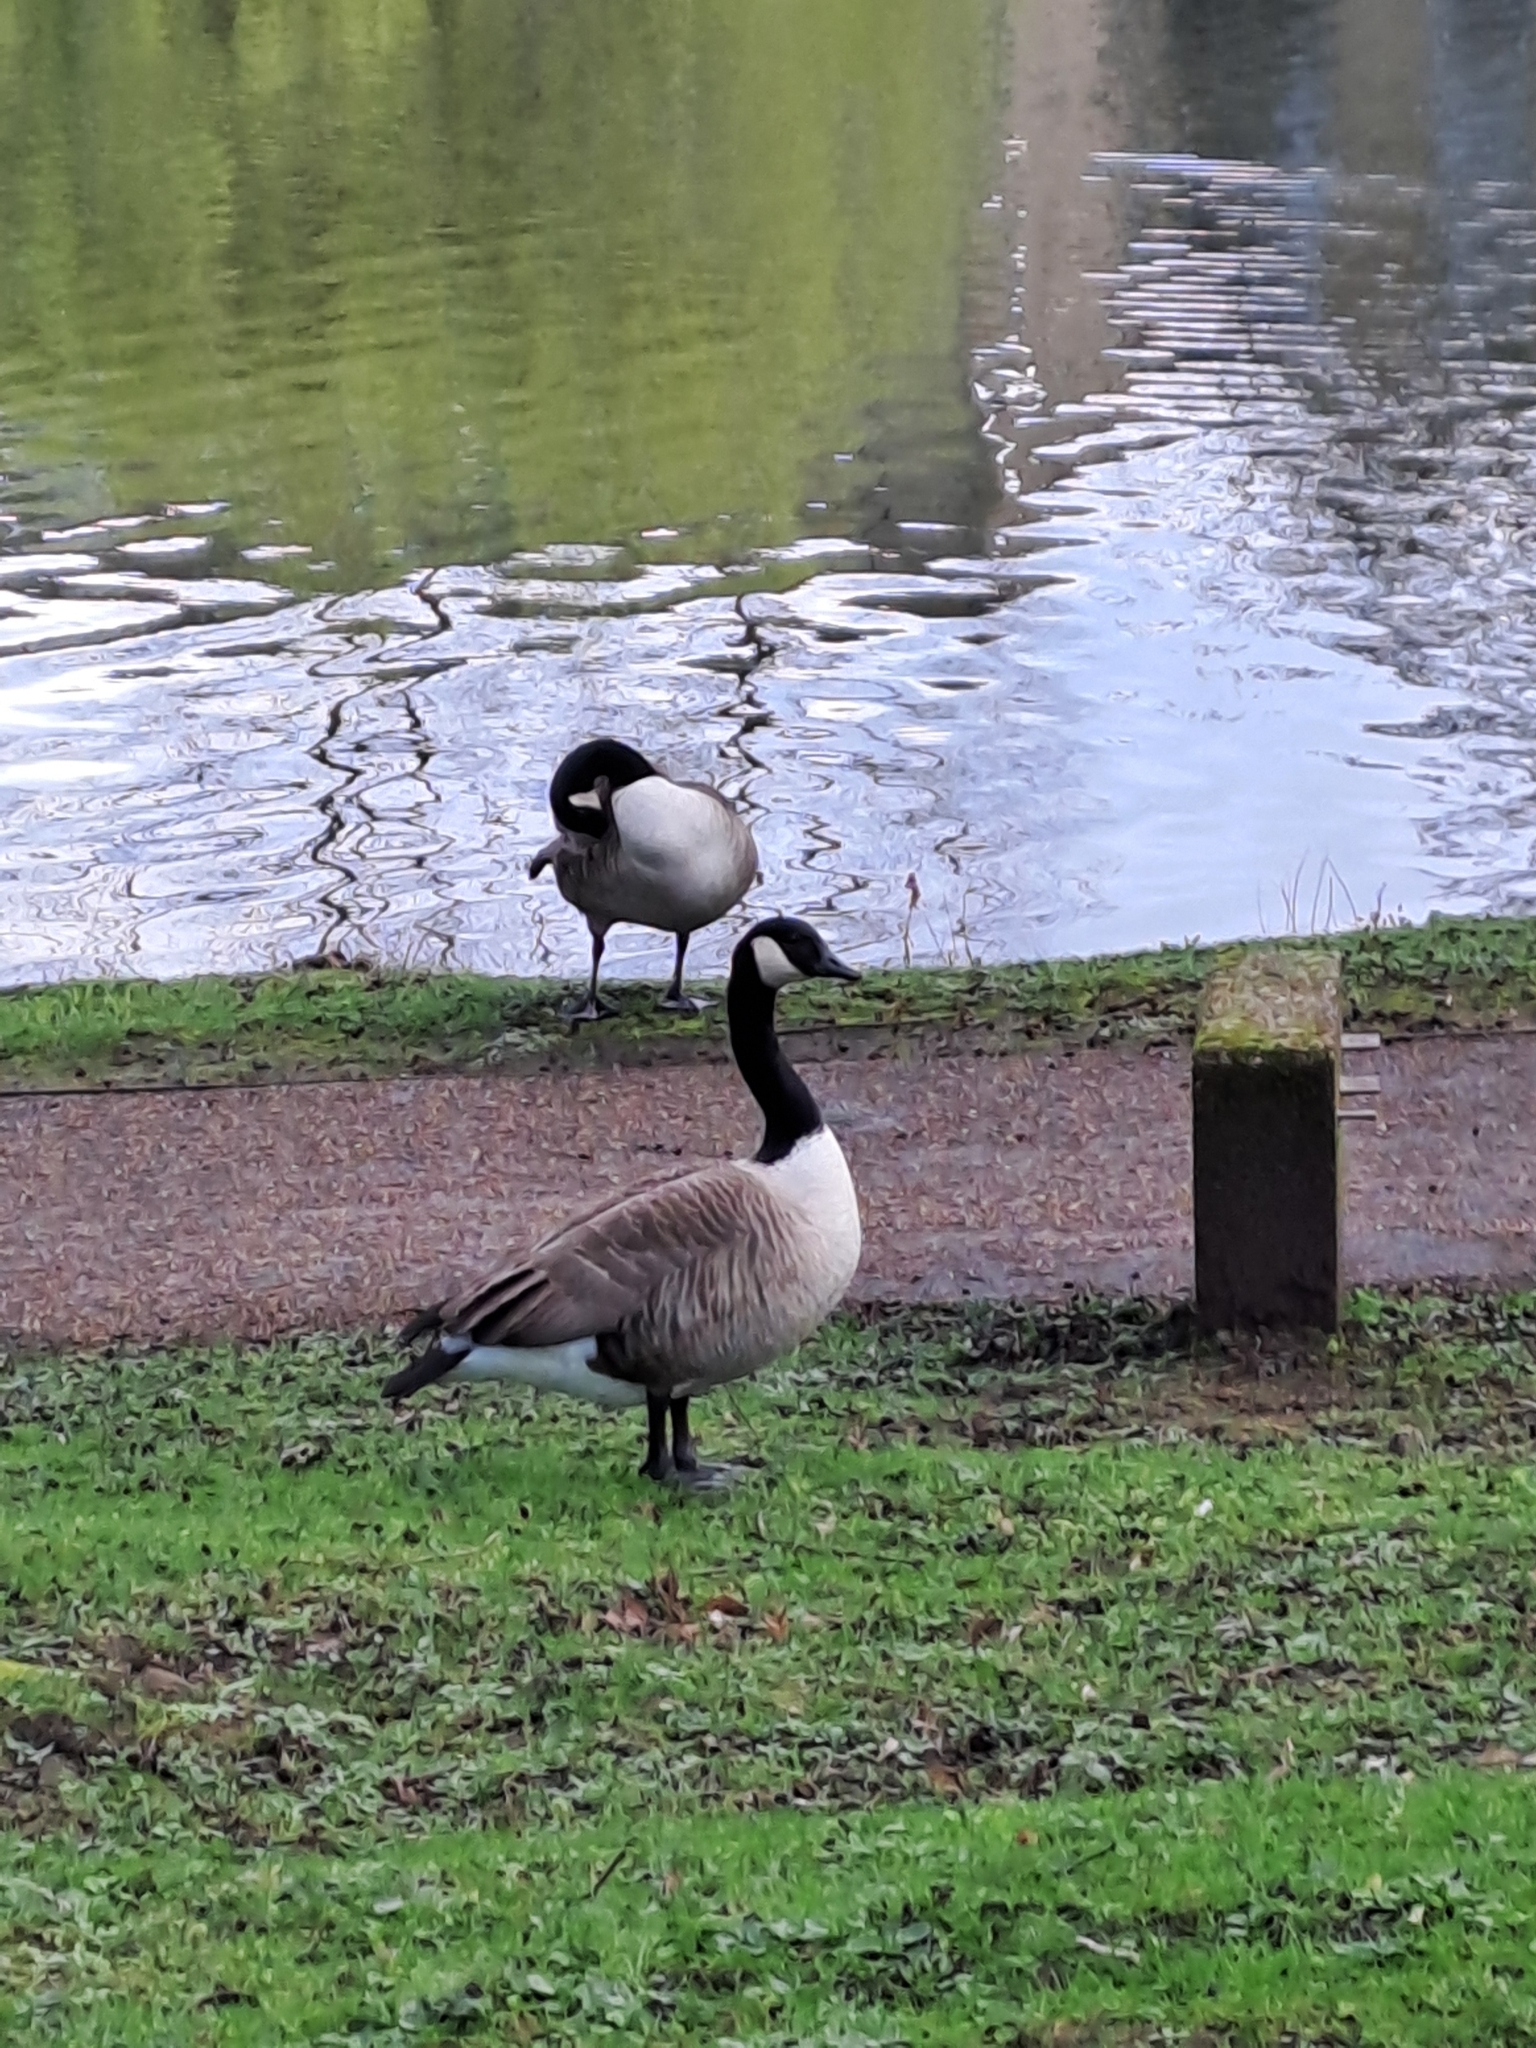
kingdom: Animalia
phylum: Chordata
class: Aves
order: Anseriformes
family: Anatidae
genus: Branta
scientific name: Branta canadensis
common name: Canada goose
